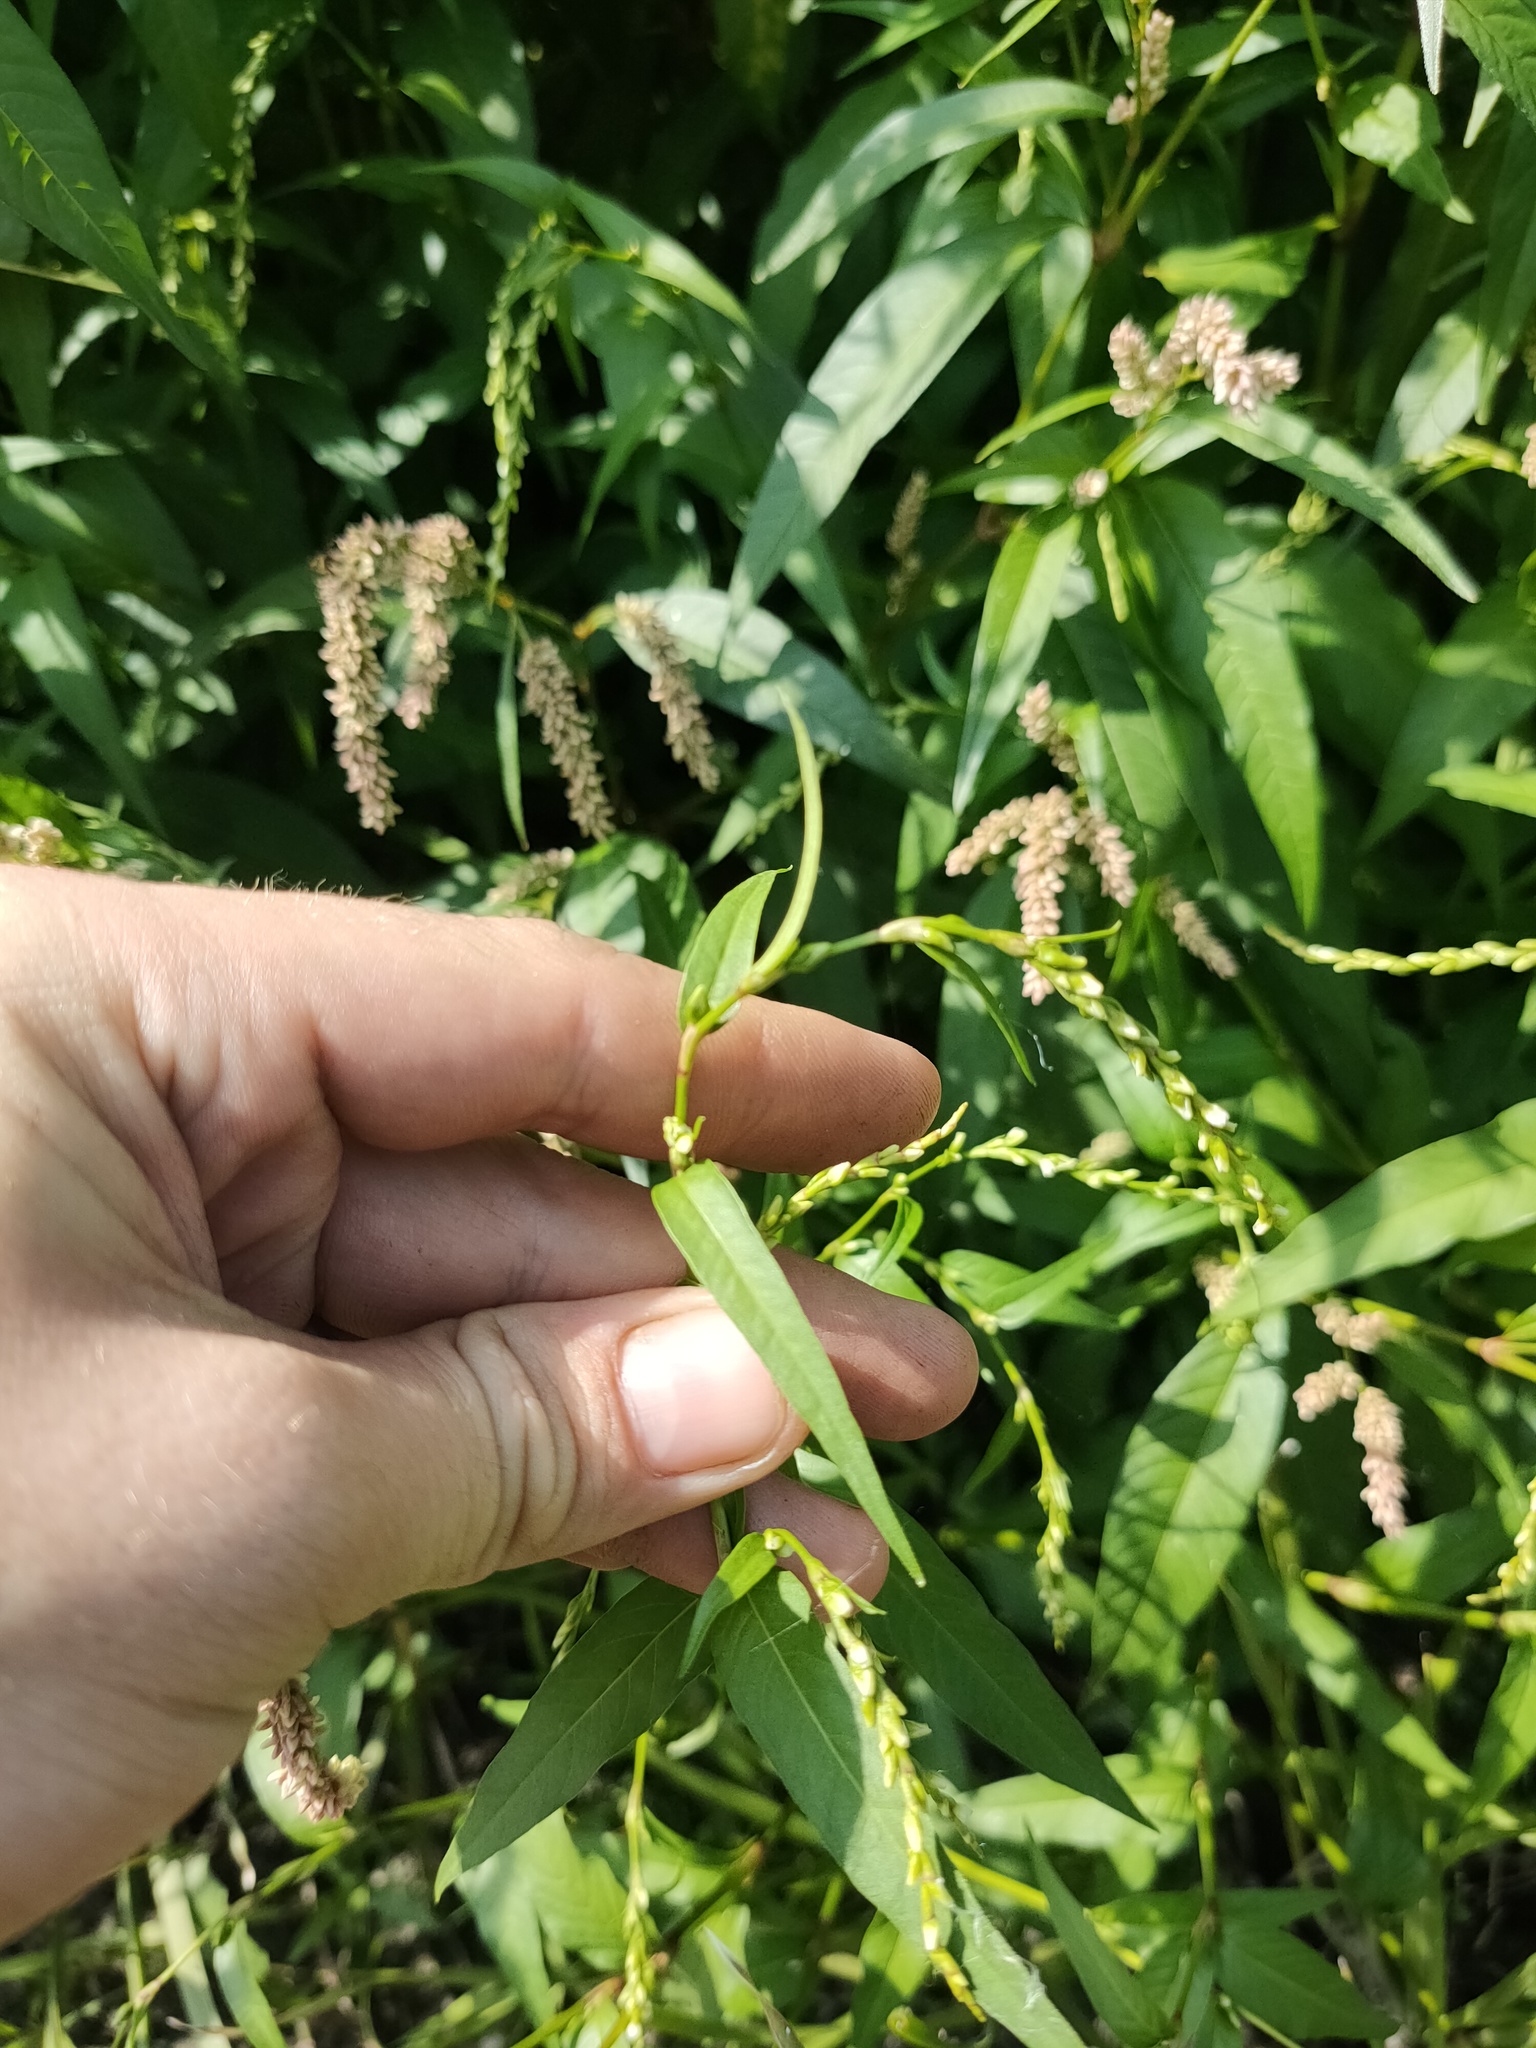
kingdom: Plantae
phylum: Tracheophyta
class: Magnoliopsida
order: Caryophyllales
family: Polygonaceae
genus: Persicaria
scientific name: Persicaria hydropiper
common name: Water-pepper
